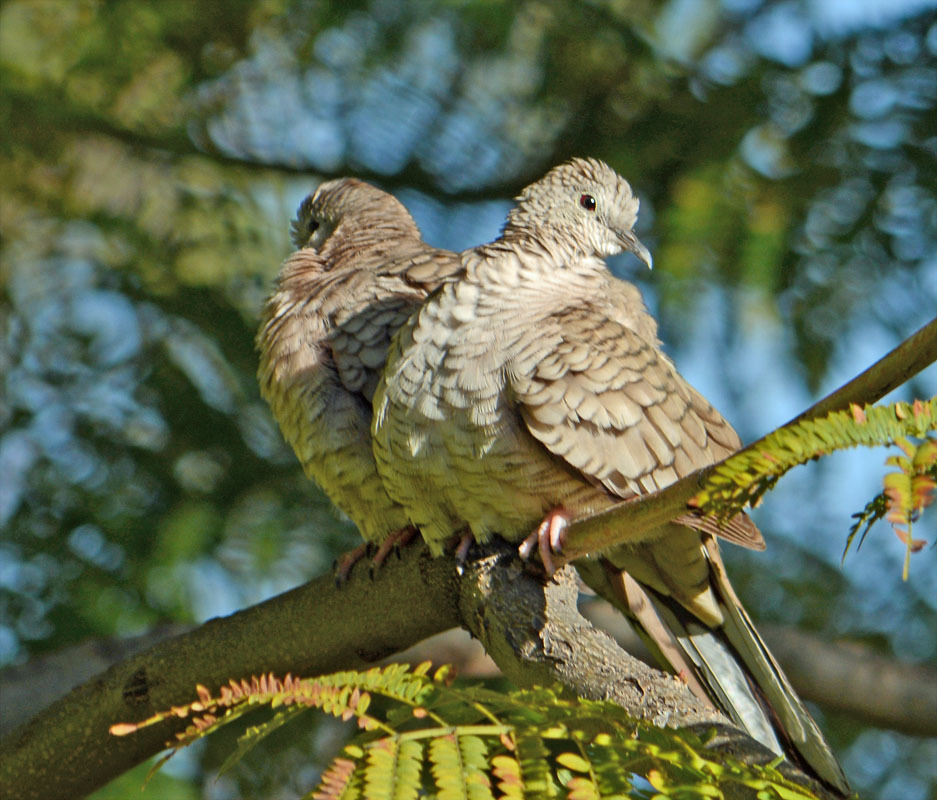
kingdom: Animalia
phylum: Chordata
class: Aves
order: Columbiformes
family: Columbidae
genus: Columbina
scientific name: Columbina inca
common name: Inca dove
